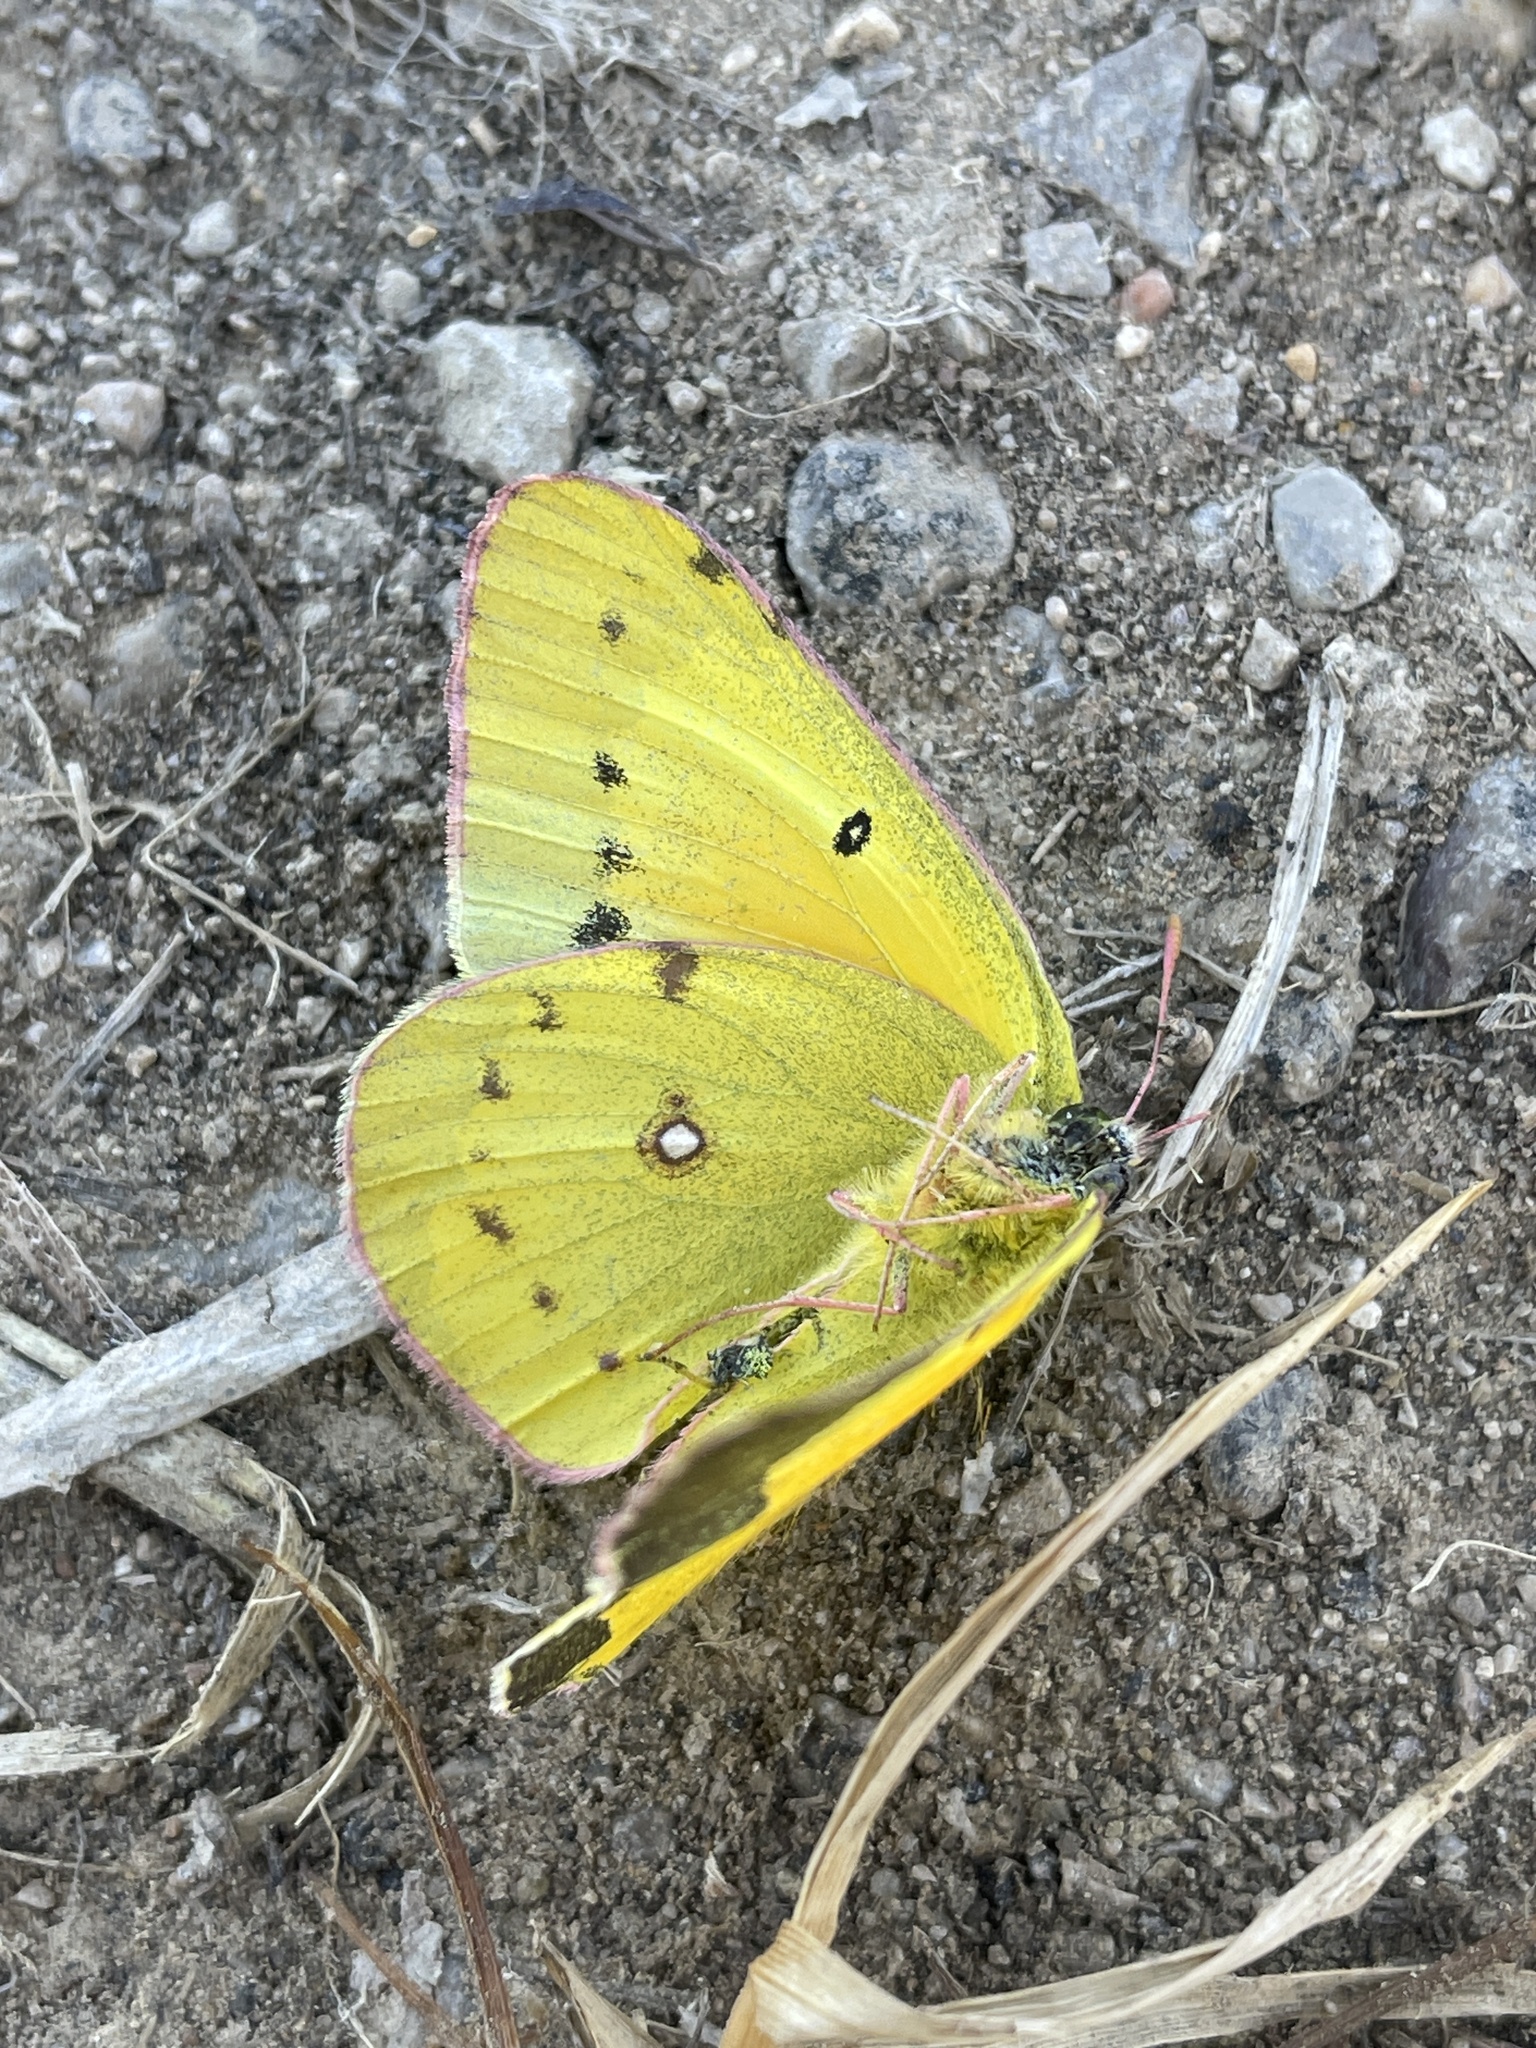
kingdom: Animalia
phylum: Arthropoda
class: Insecta
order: Lepidoptera
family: Pieridae
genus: Colias
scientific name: Colias eurytheme
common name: Alfalfa butterfly
